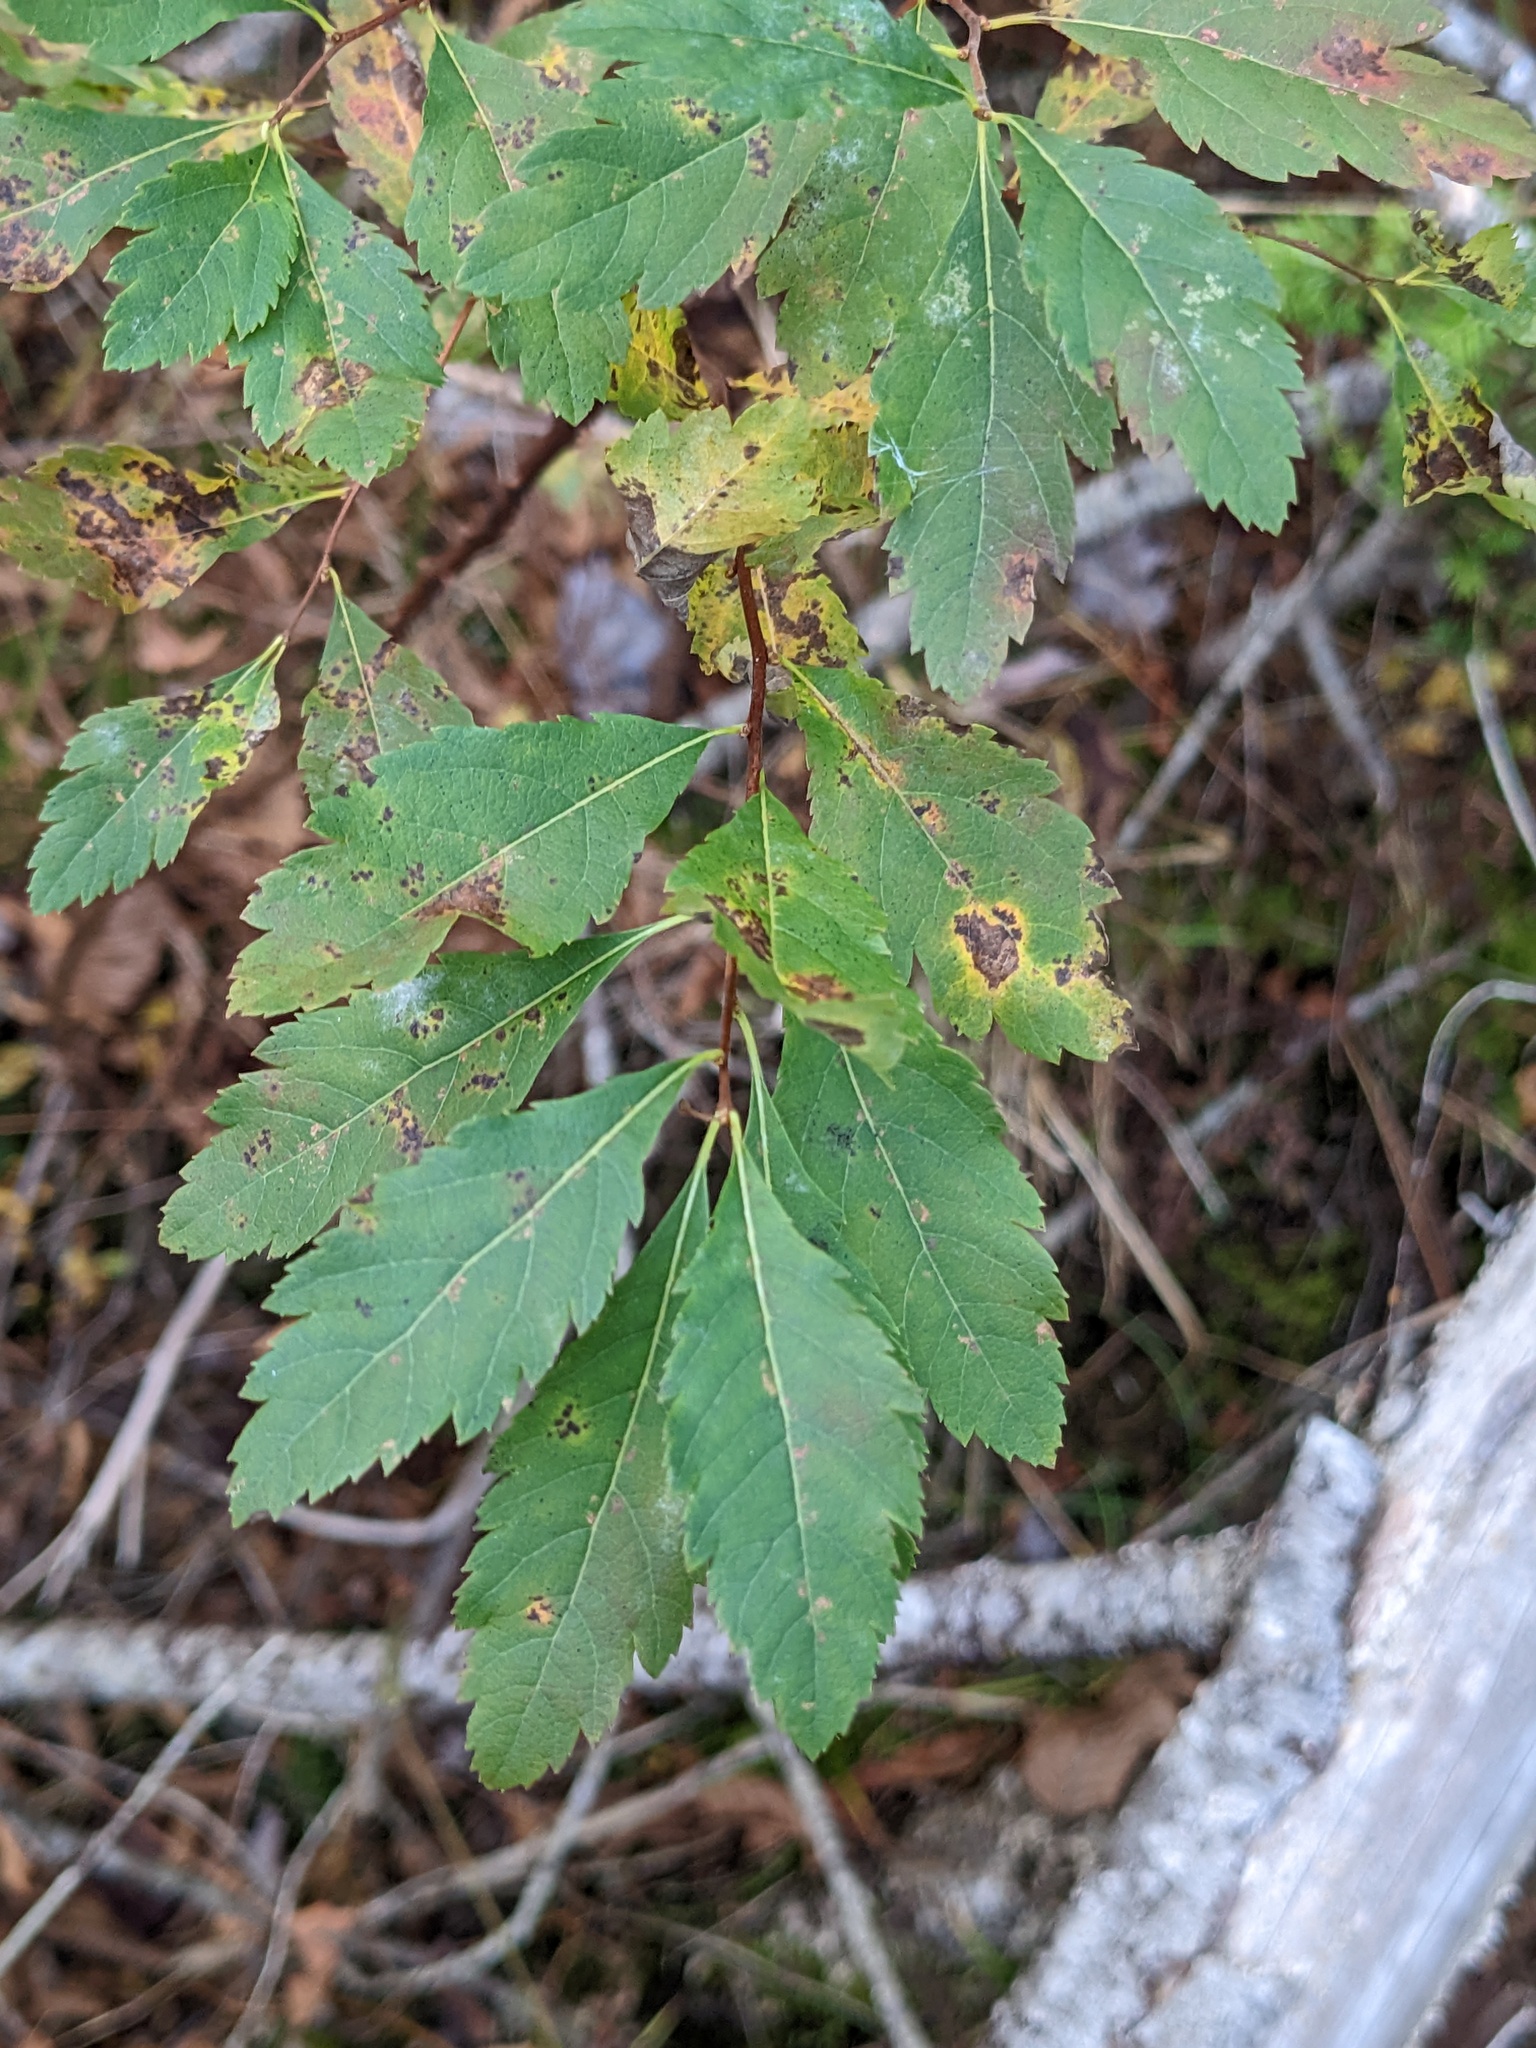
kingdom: Plantae
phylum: Tracheophyta
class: Magnoliopsida
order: Rosales
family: Rosaceae
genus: Spiraea
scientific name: Spiraea alba
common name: Pale bridewort
